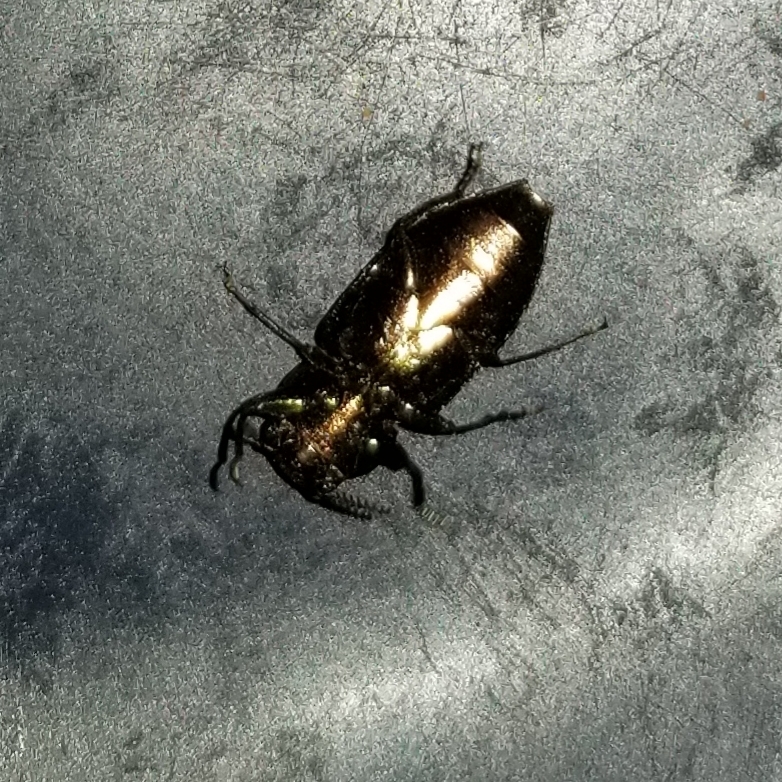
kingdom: Animalia
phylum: Arthropoda
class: Insecta
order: Coleoptera
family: Buprestidae
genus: Knowltonia
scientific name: Knowltonia calida
